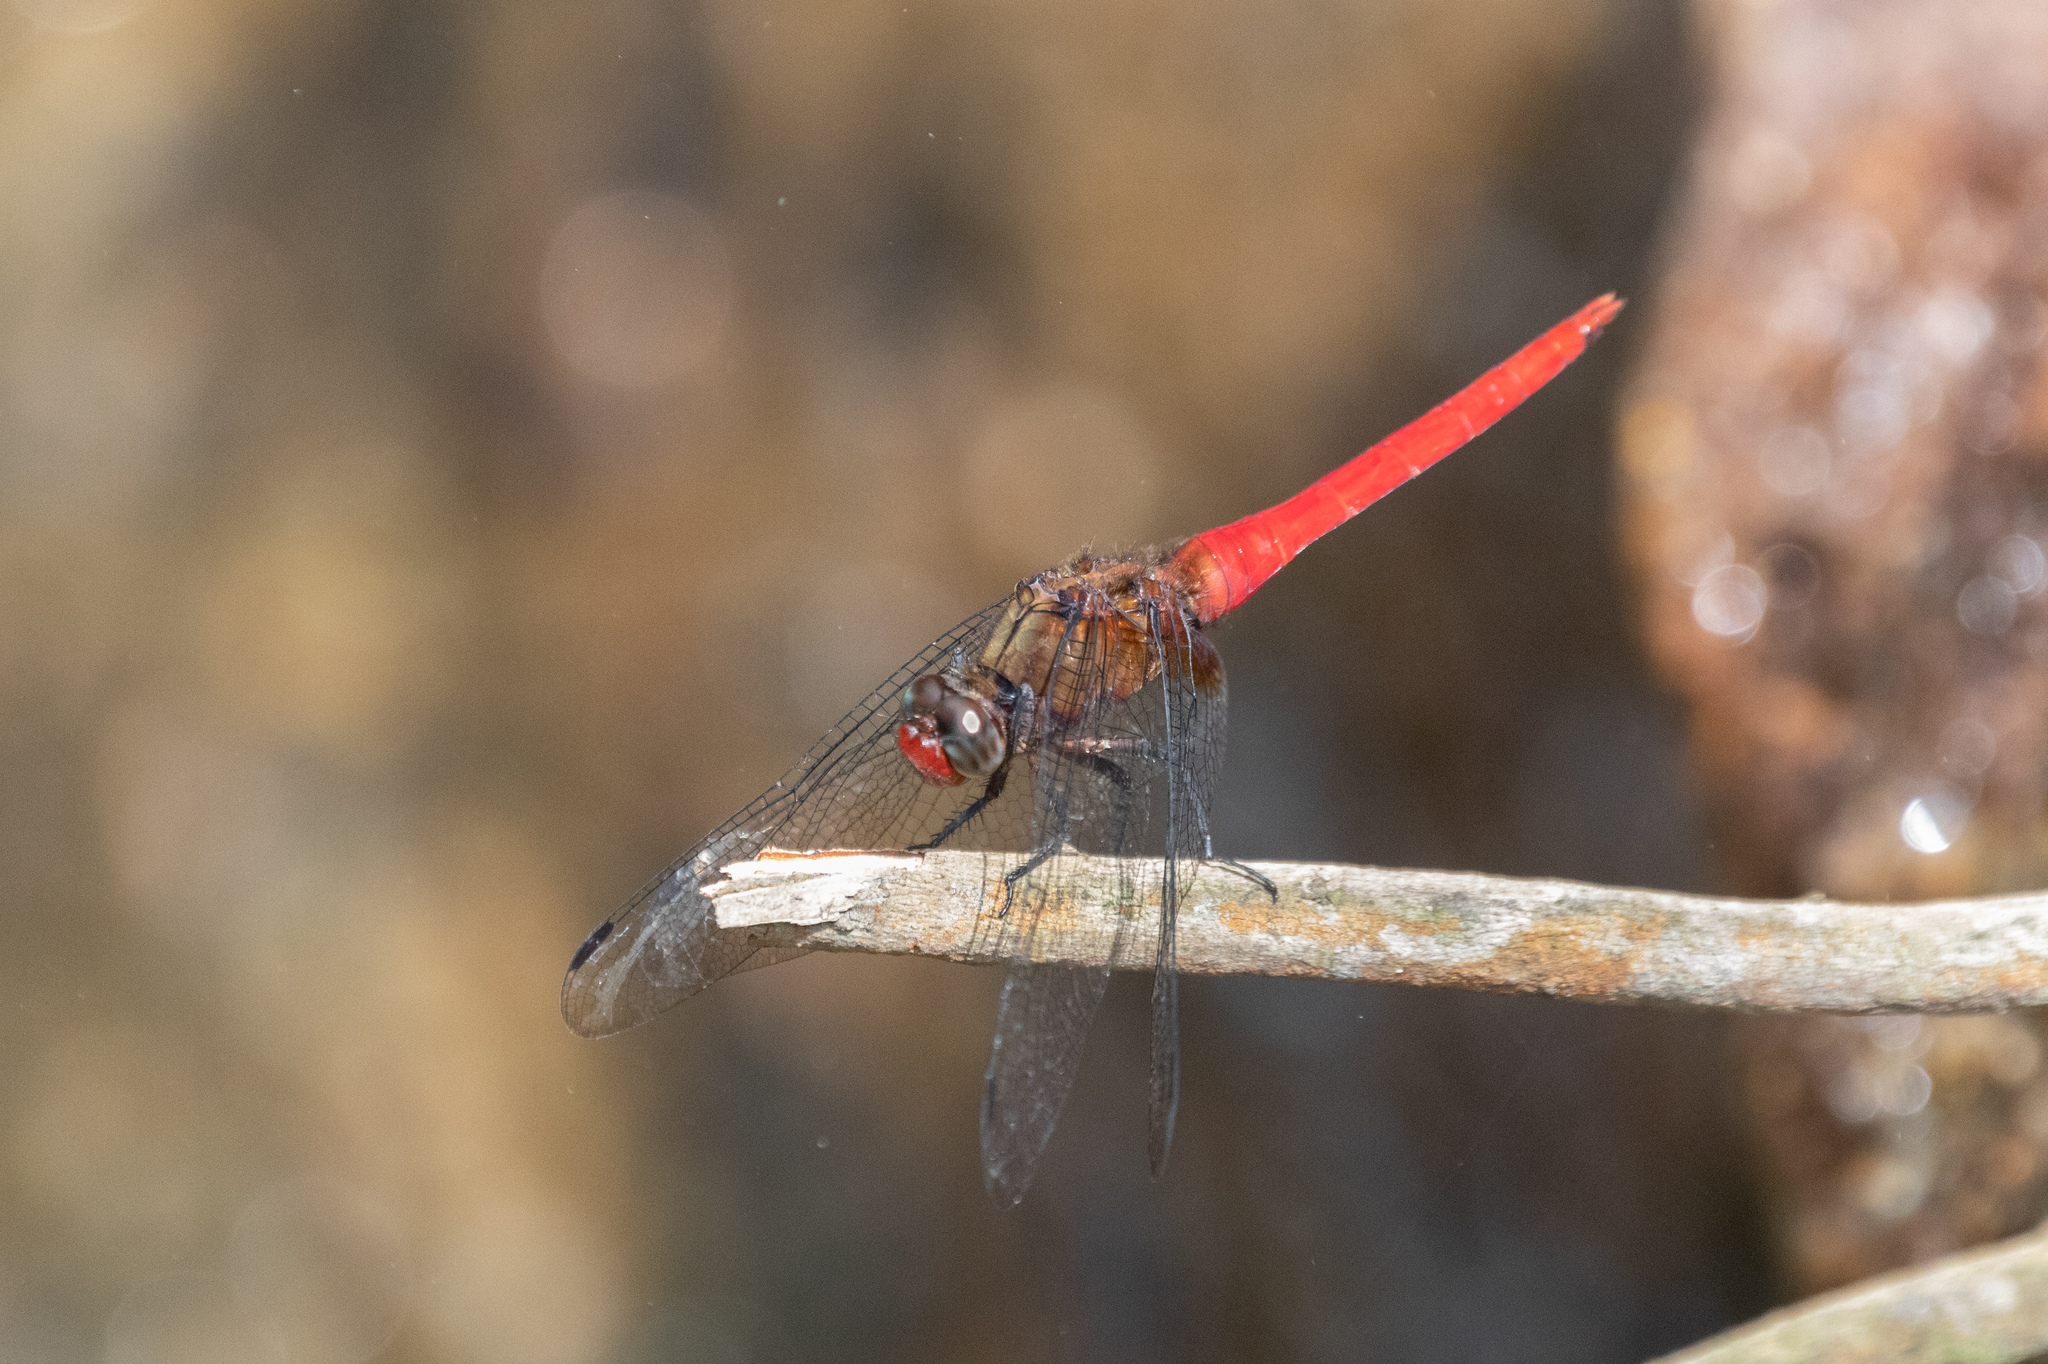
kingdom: Animalia
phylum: Arthropoda
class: Insecta
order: Odonata
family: Libellulidae
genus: Orthetrum
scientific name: Orthetrum chrysis
